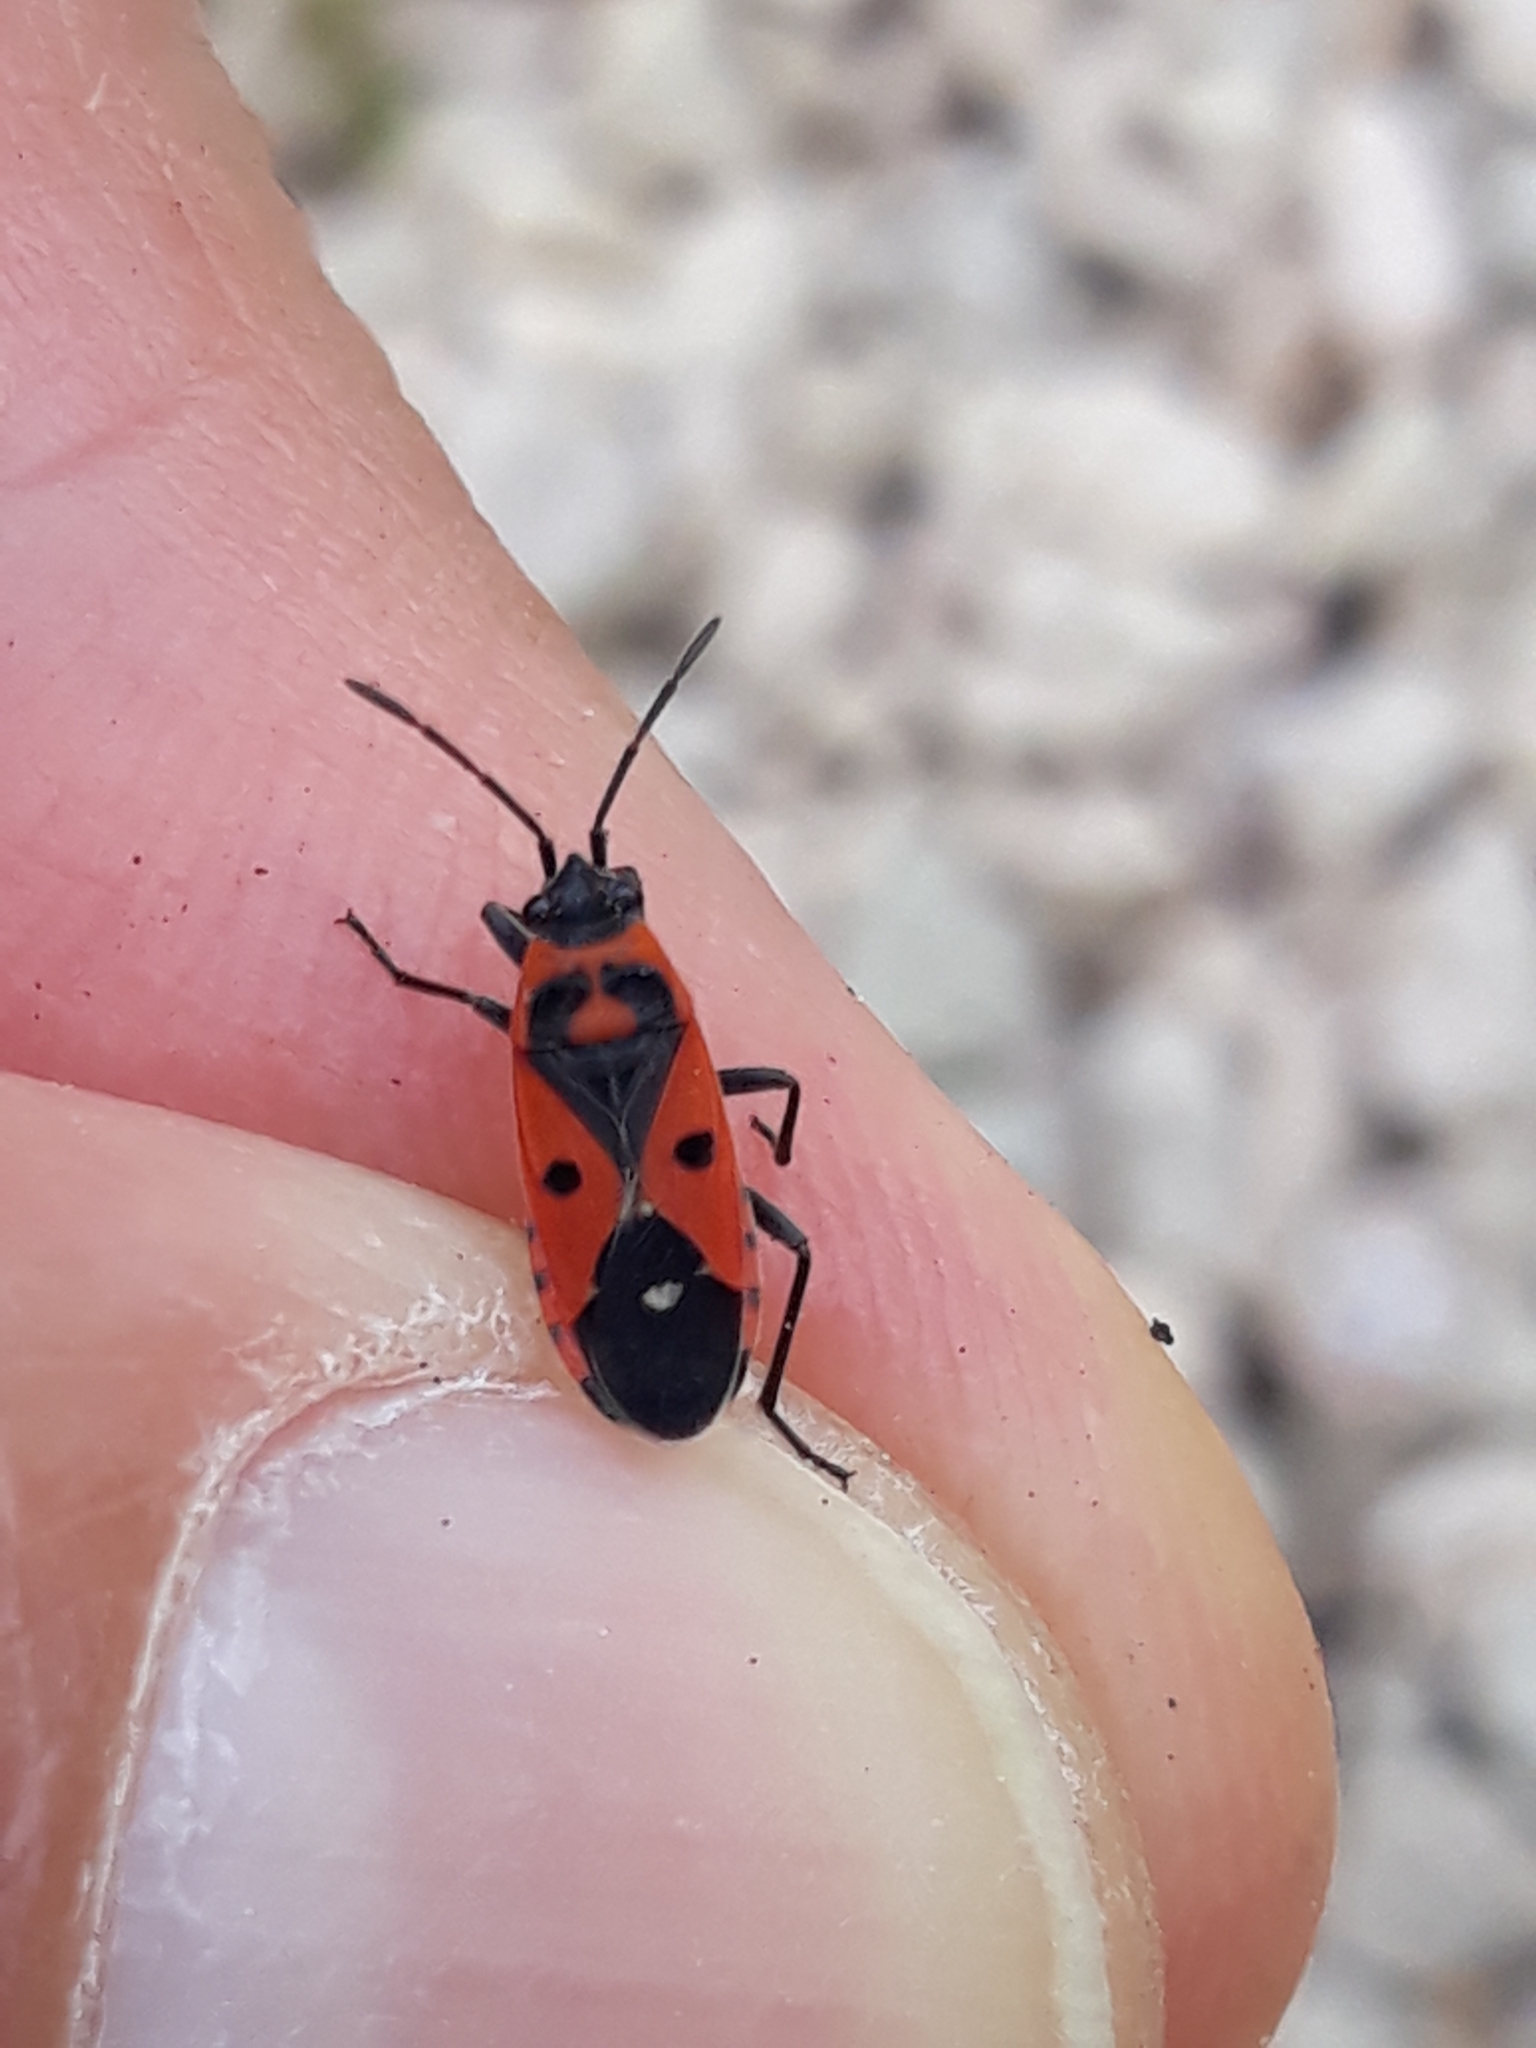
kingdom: Animalia
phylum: Arthropoda
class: Insecta
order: Hemiptera
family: Lygaeidae
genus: Melanocoryphus
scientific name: Melanocoryphus albomaculatus
